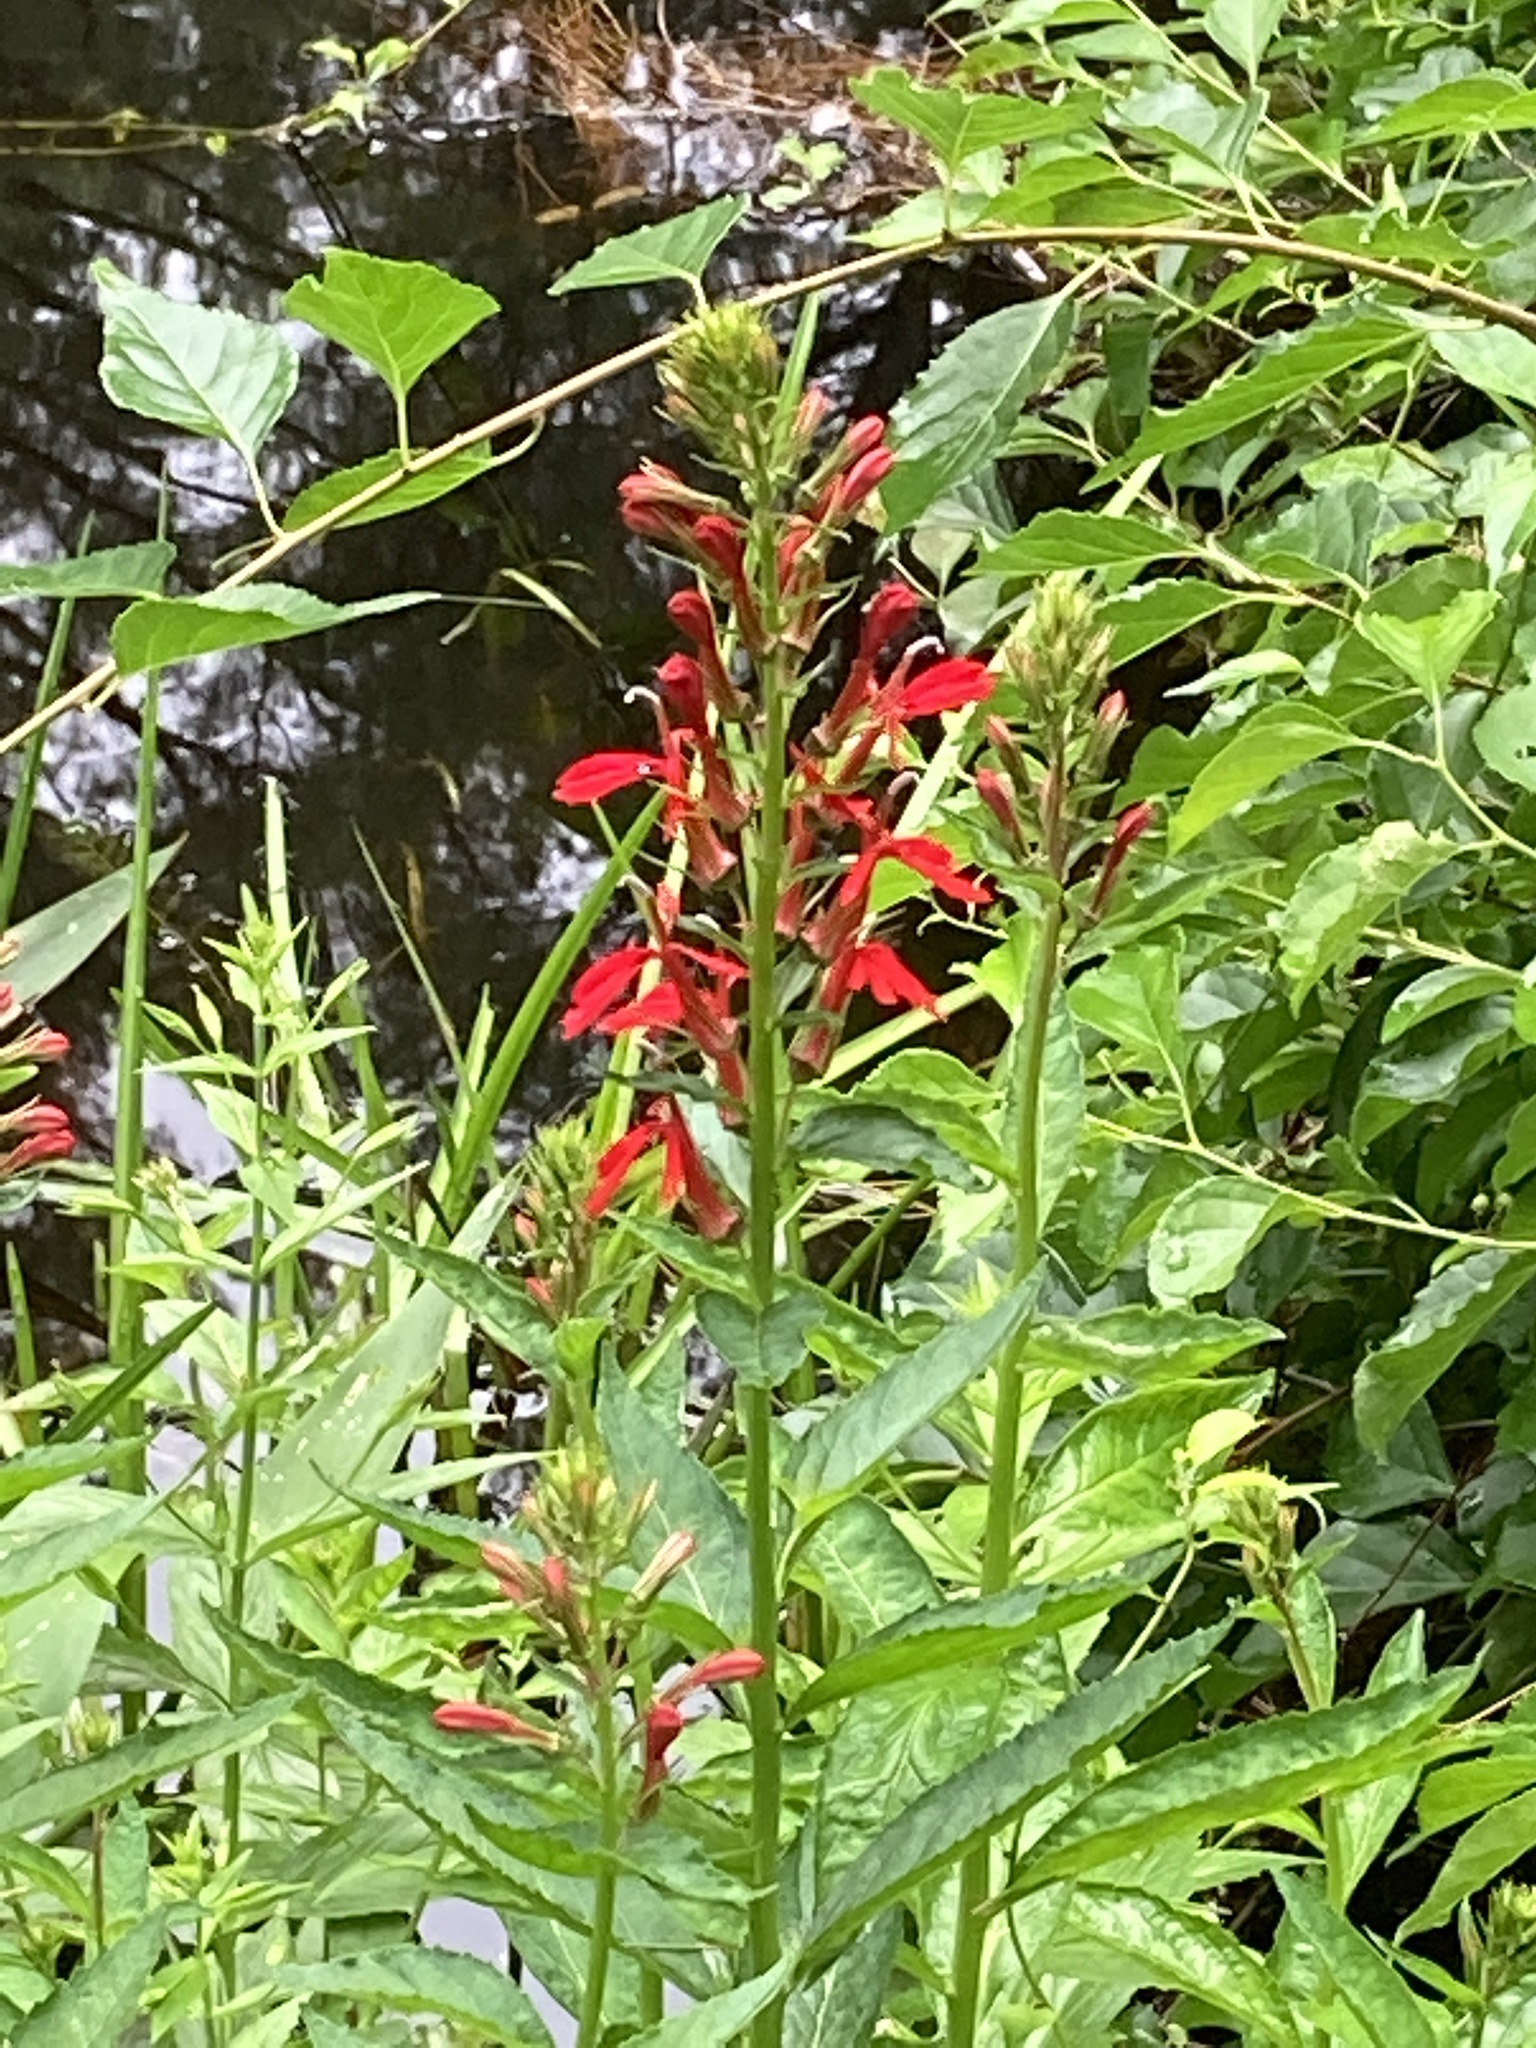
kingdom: Plantae
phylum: Tracheophyta
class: Magnoliopsida
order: Asterales
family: Campanulaceae
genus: Lobelia
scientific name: Lobelia cardinalis
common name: Cardinal flower
